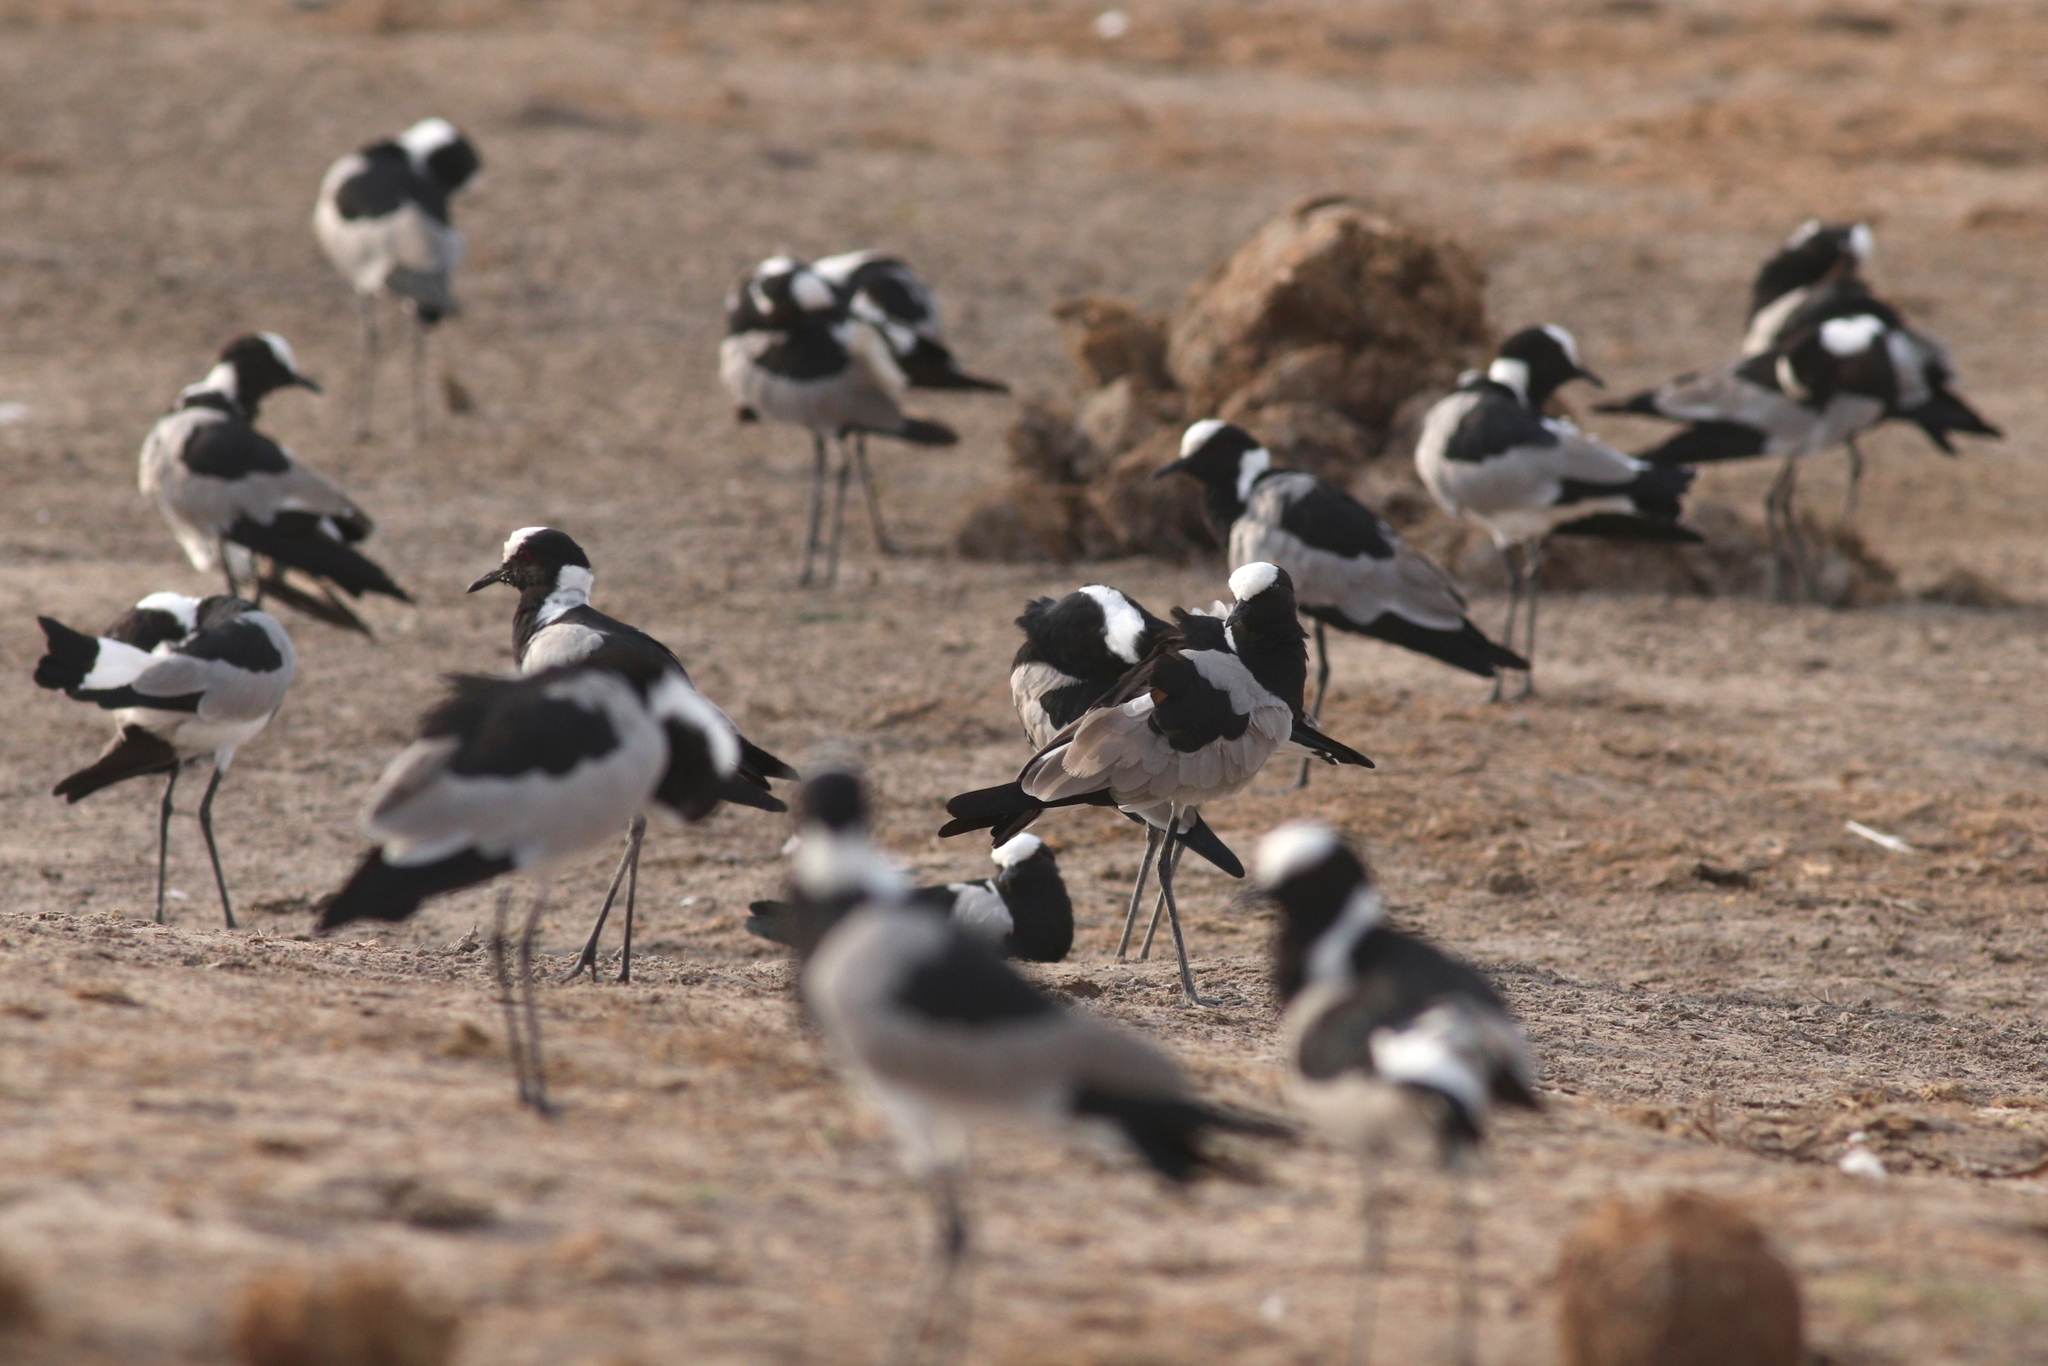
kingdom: Animalia
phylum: Chordata
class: Aves
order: Charadriiformes
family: Charadriidae
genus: Vanellus
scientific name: Vanellus armatus
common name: Blacksmith lapwing
